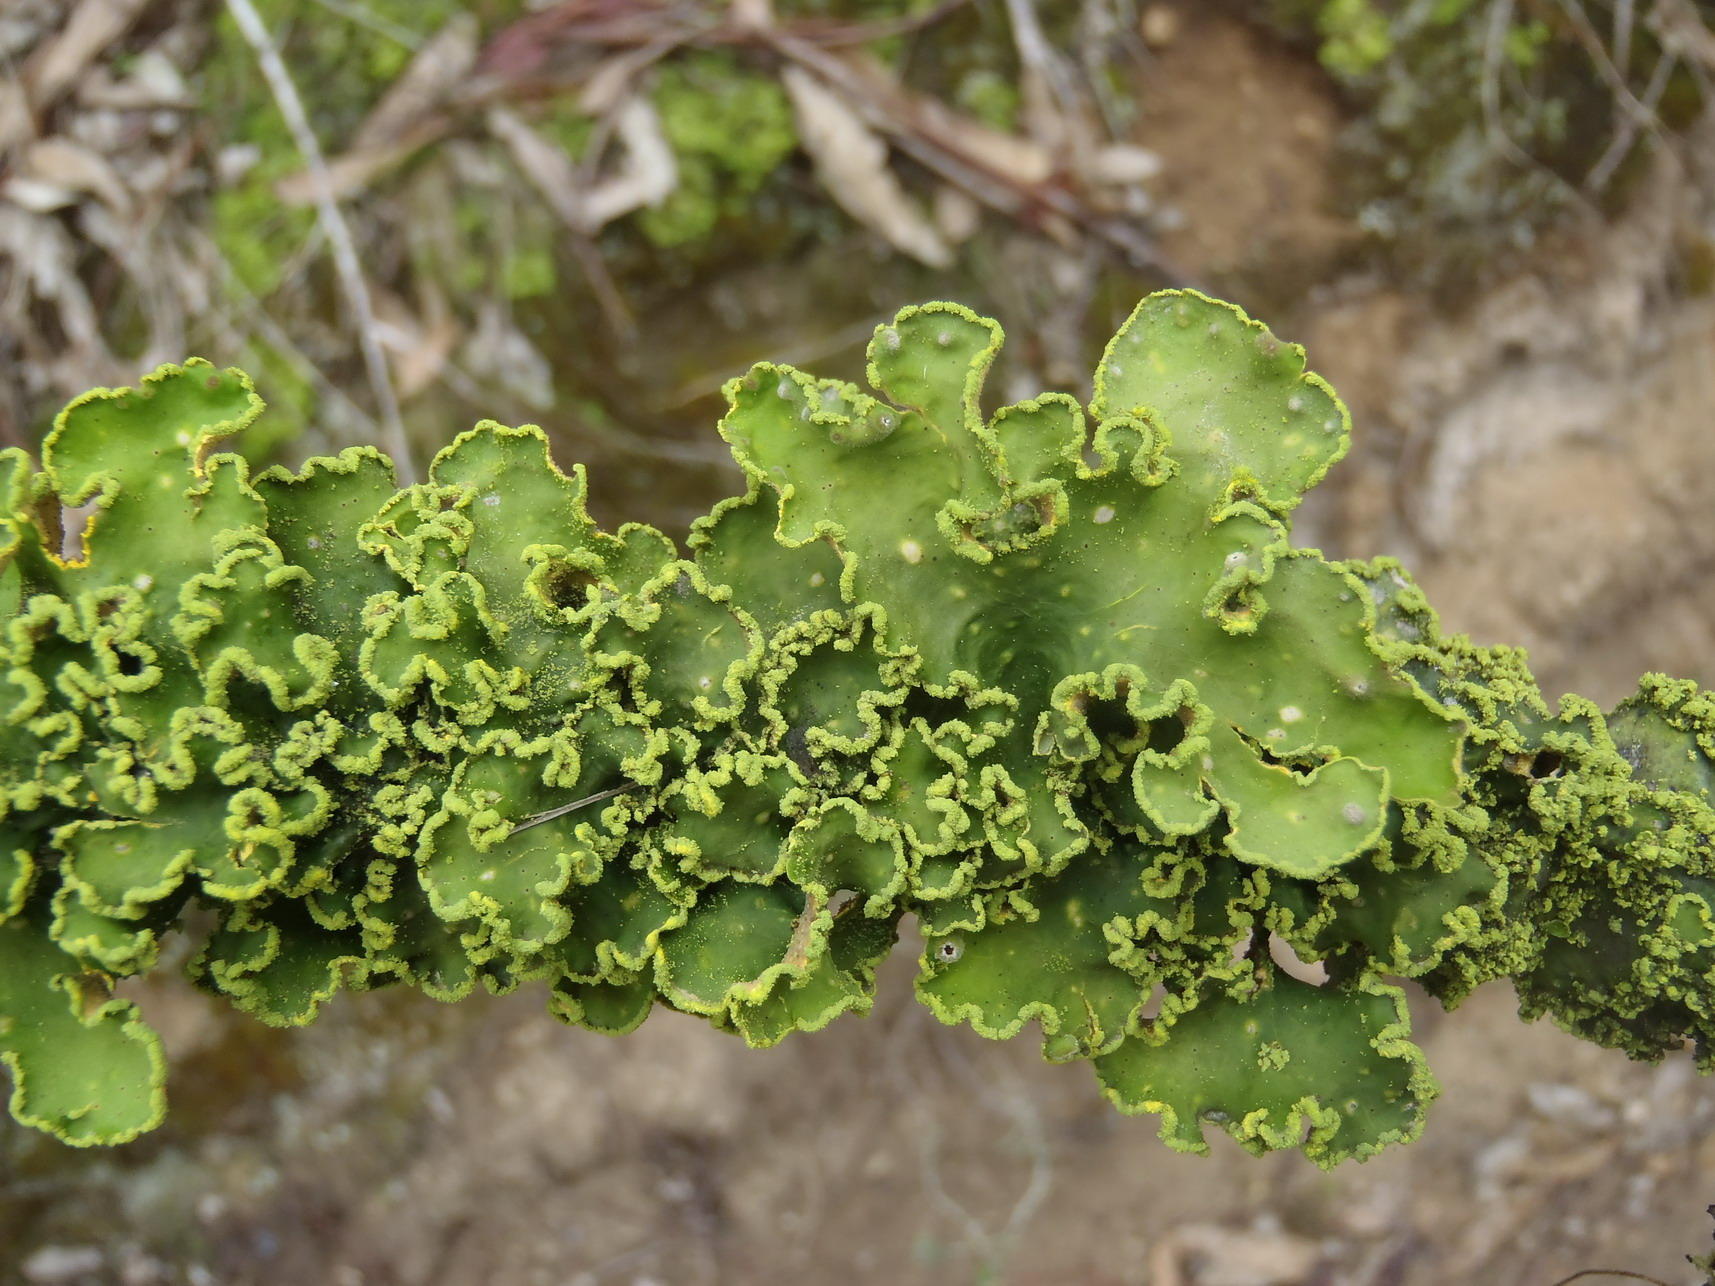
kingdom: Fungi
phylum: Ascomycota
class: Lecanoromycetes
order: Peltigerales
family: Lobariaceae
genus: Pseudocyphellaria
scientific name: Pseudocyphellaria aurata
